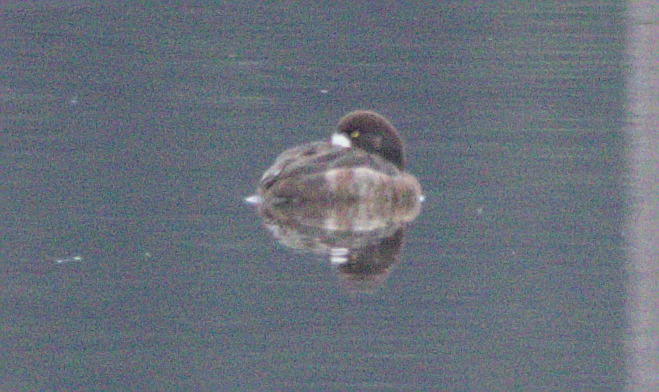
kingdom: Animalia
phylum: Chordata
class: Aves
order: Anseriformes
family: Anatidae
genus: Aythya
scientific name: Aythya marila
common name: Greater scaup
